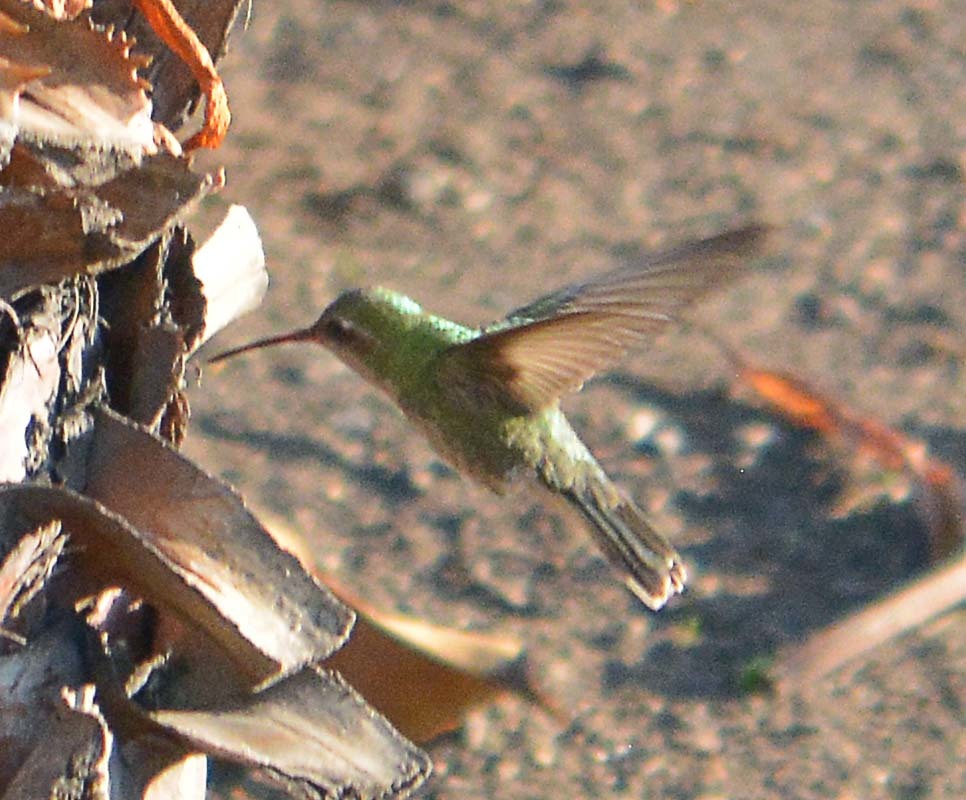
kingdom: Animalia
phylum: Chordata
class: Aves
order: Apodiformes
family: Trochilidae
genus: Cynanthus
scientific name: Cynanthus latirostris
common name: Broad-billed hummingbird
